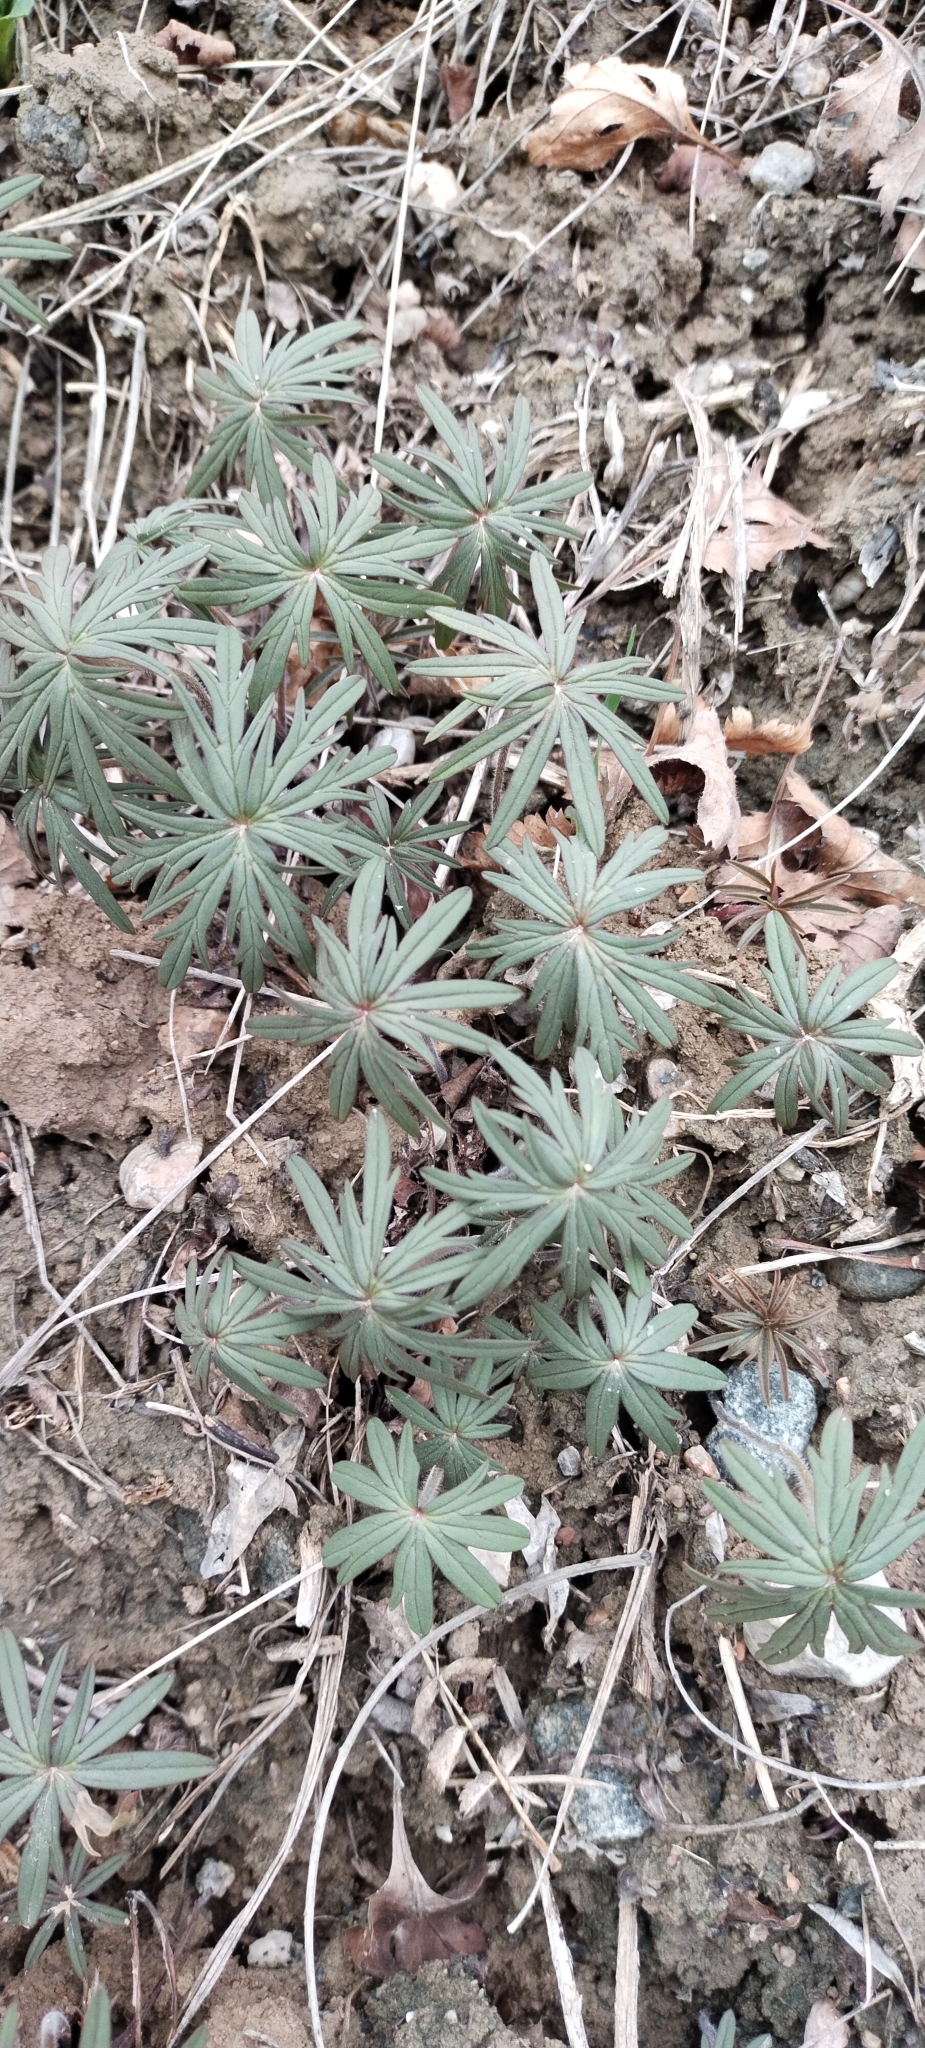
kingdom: Plantae
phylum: Tracheophyta
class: Magnoliopsida
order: Geraniales
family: Geraniaceae
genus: Geranium
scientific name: Geranium linearilobum
